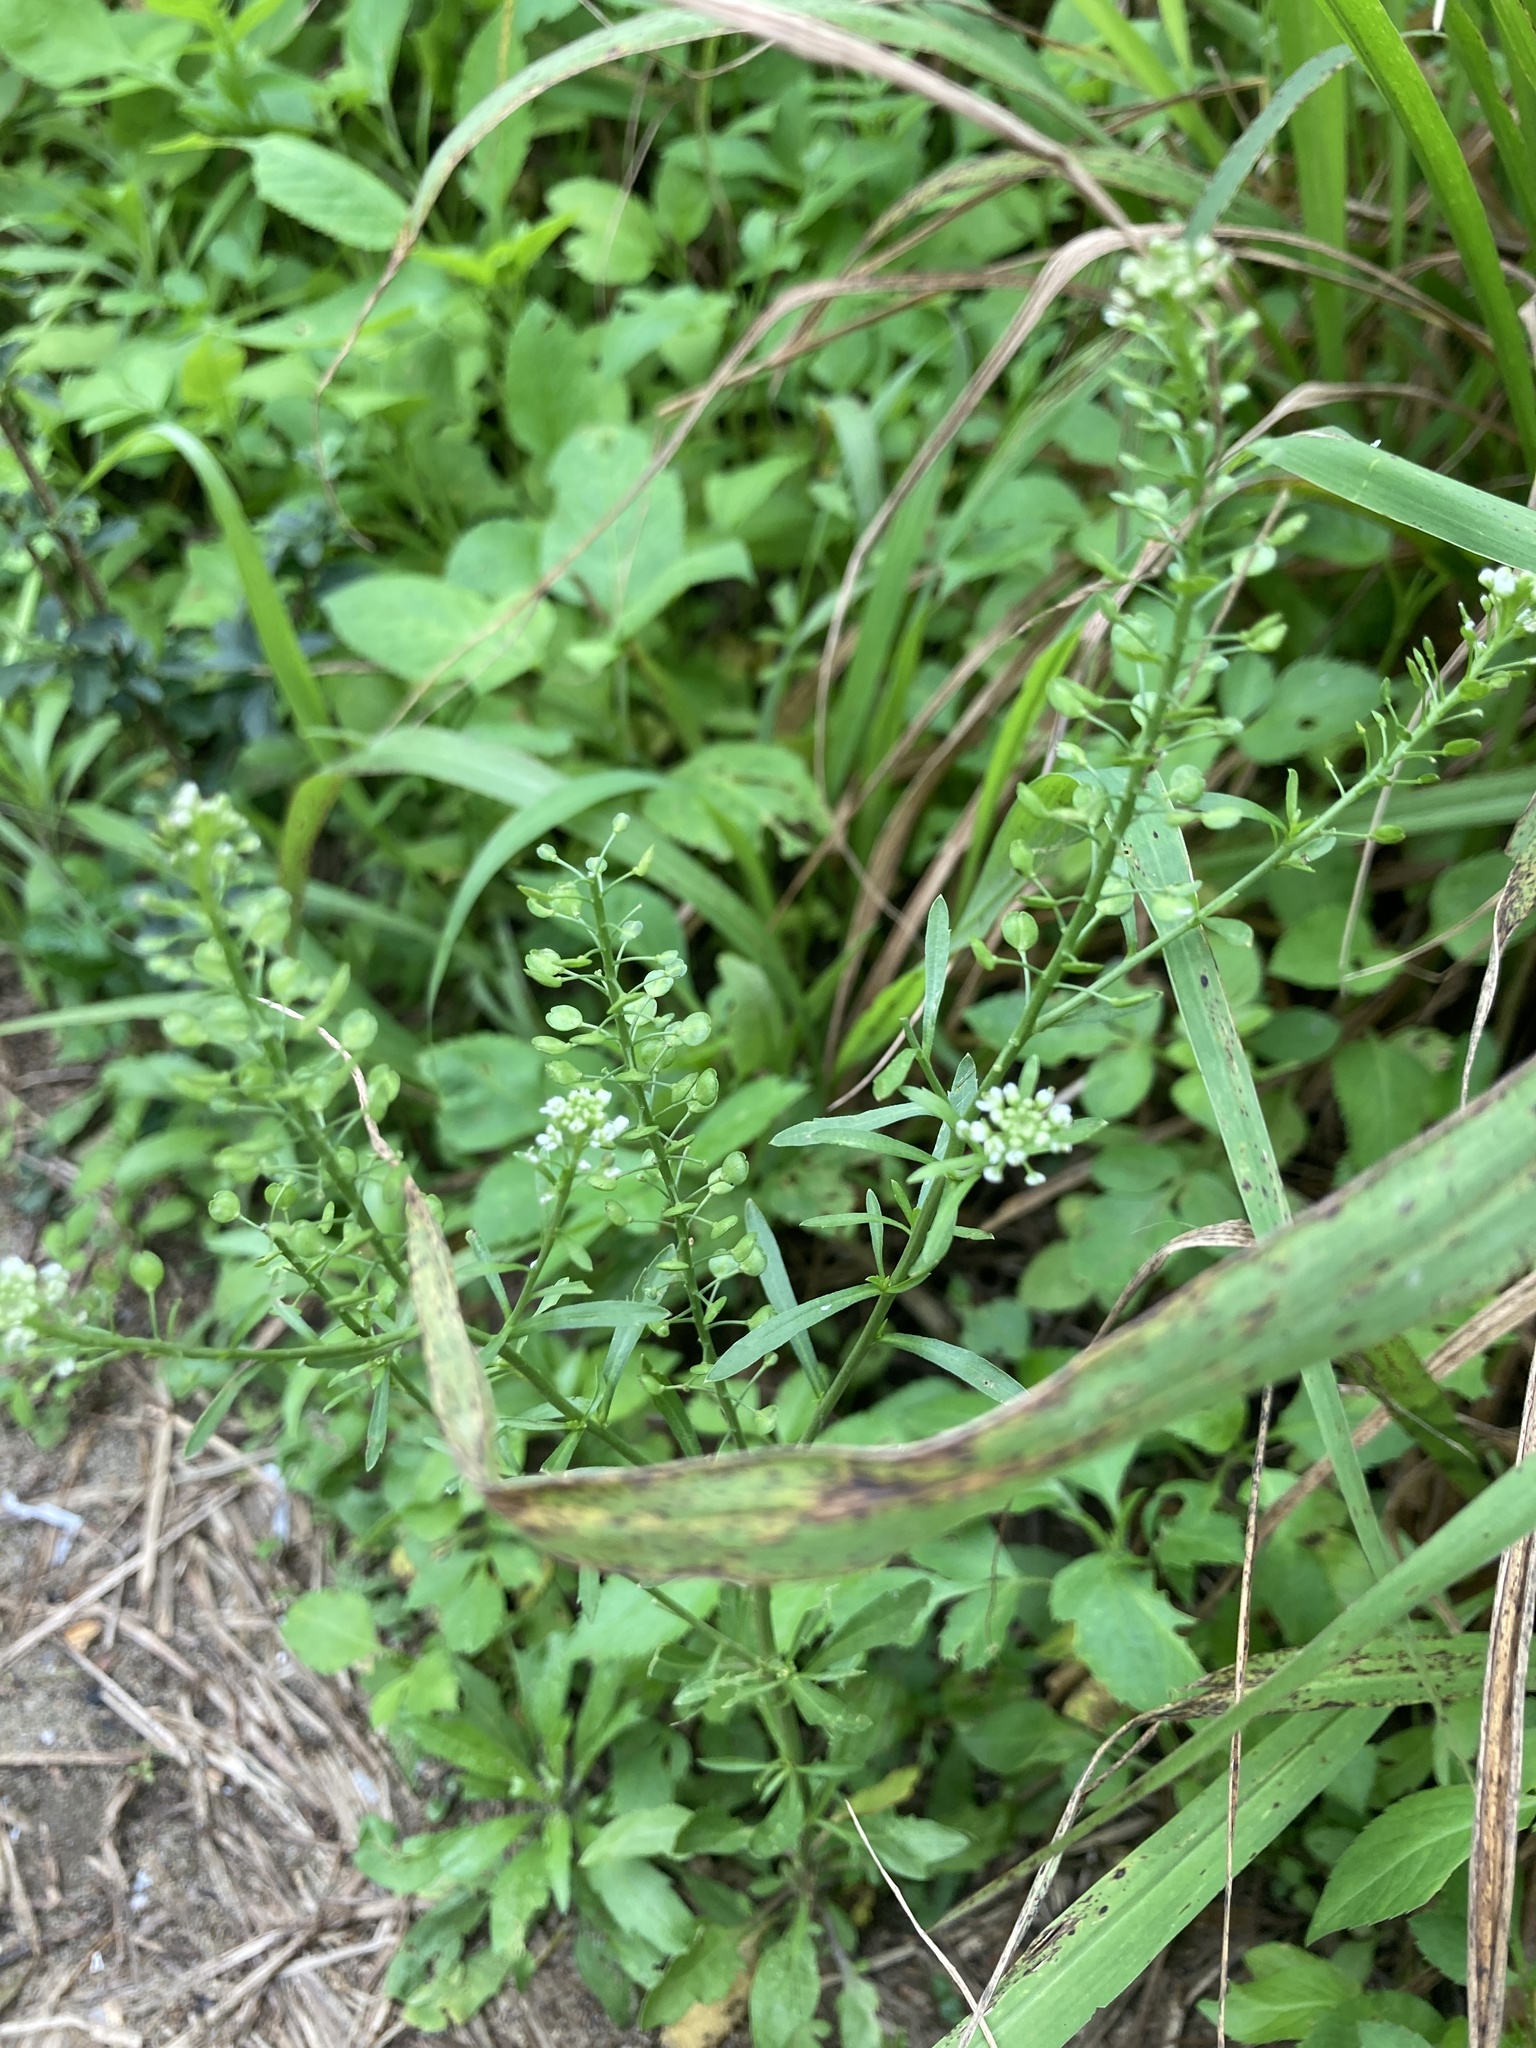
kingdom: Plantae
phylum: Tracheophyta
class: Magnoliopsida
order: Brassicales
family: Brassicaceae
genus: Lepidium
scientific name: Lepidium virginicum
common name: Least pepperwort
